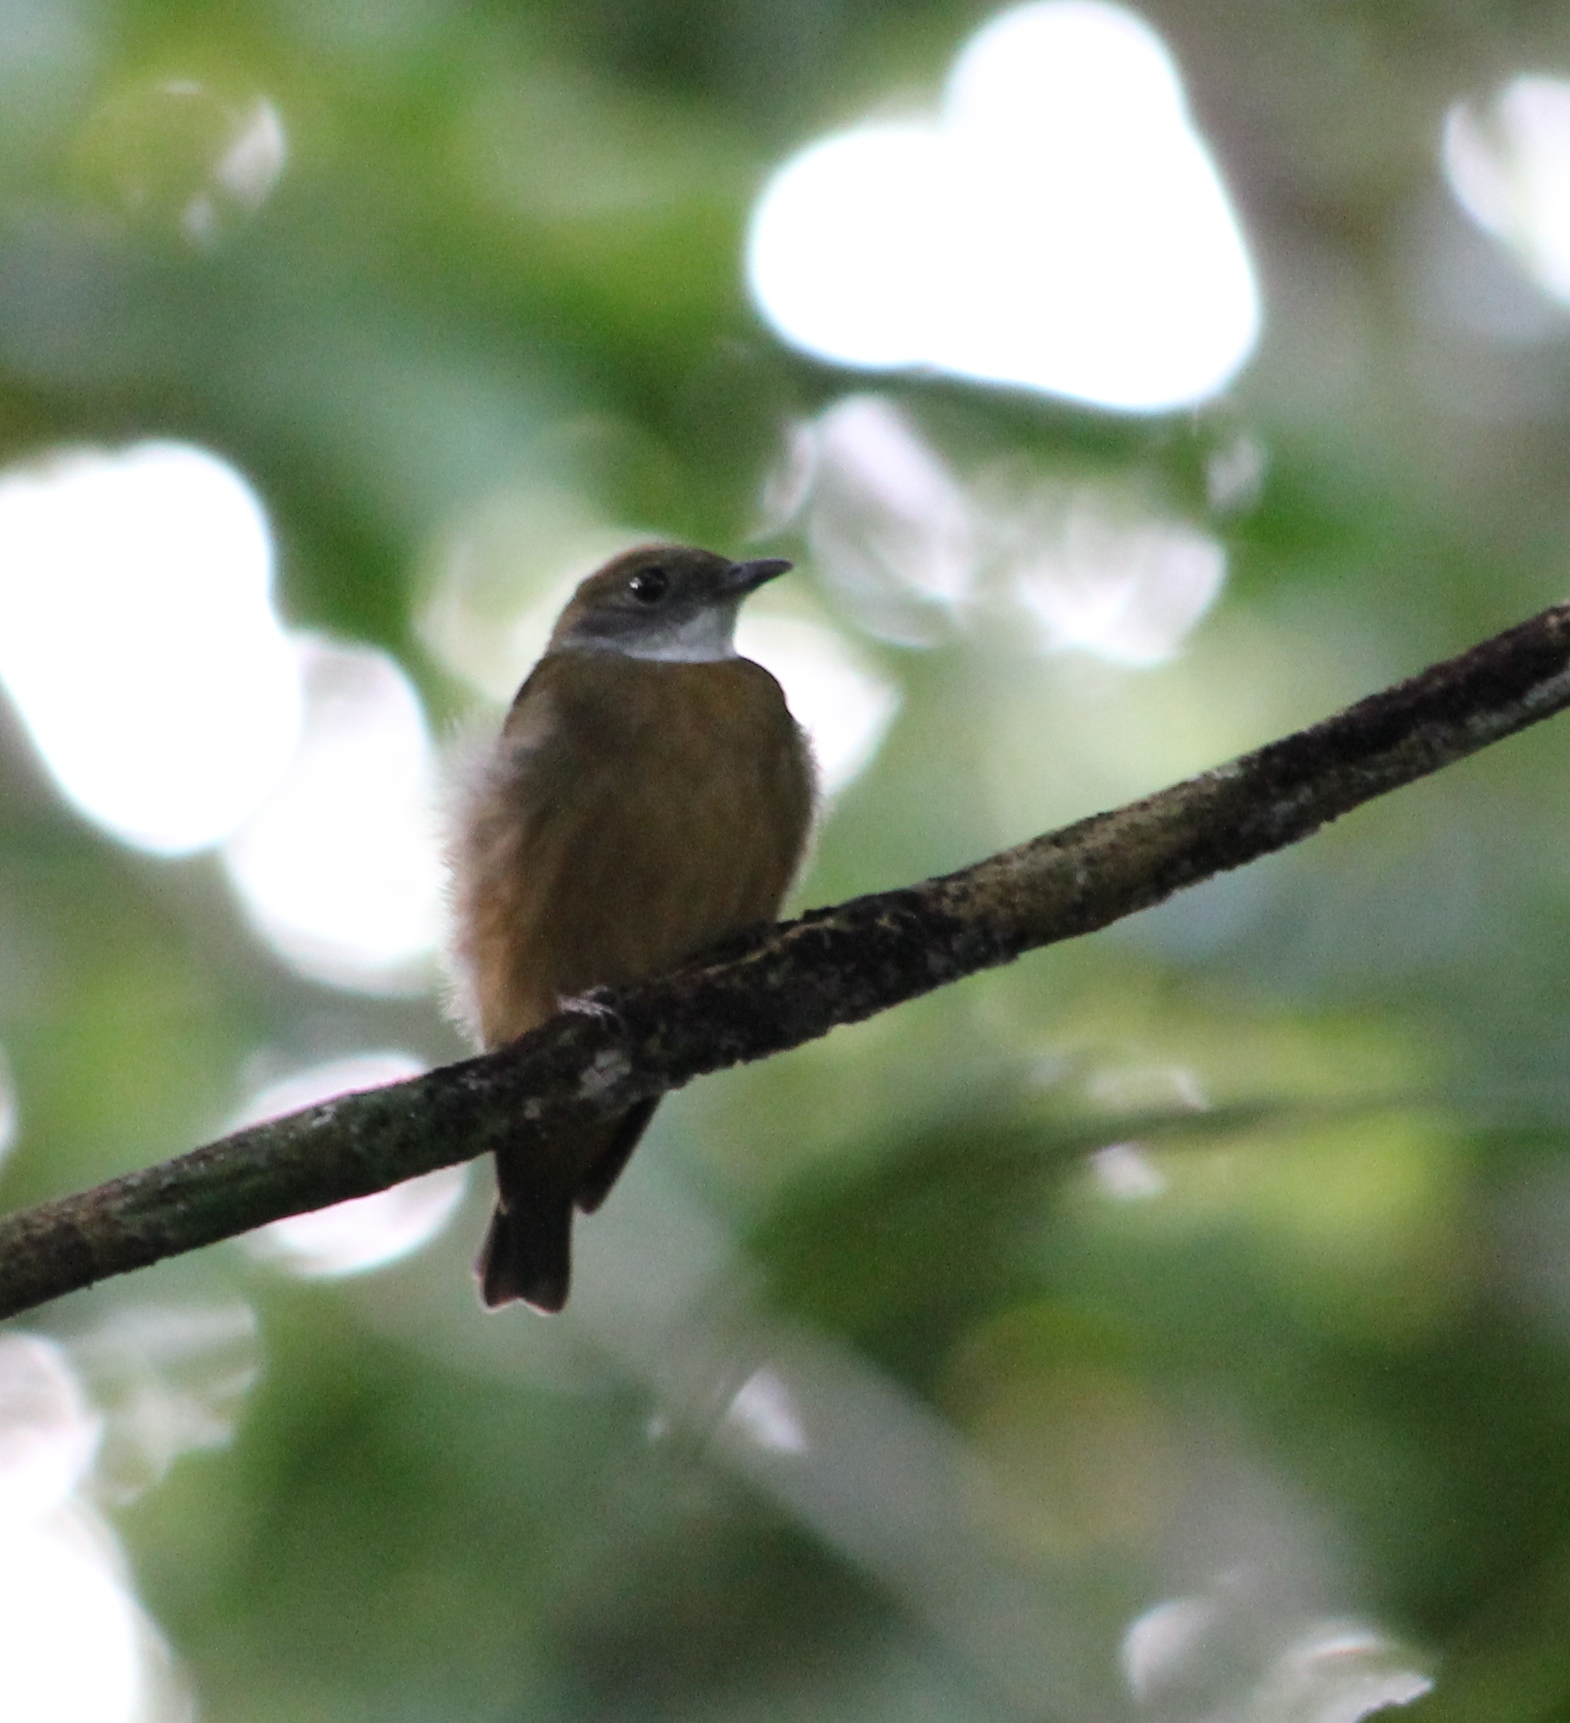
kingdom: Animalia
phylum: Chordata
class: Aves
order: Passeriformes
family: Pipridae
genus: Heterocercus
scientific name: Heterocercus aurantiivertex
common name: Orange-crested manakin
